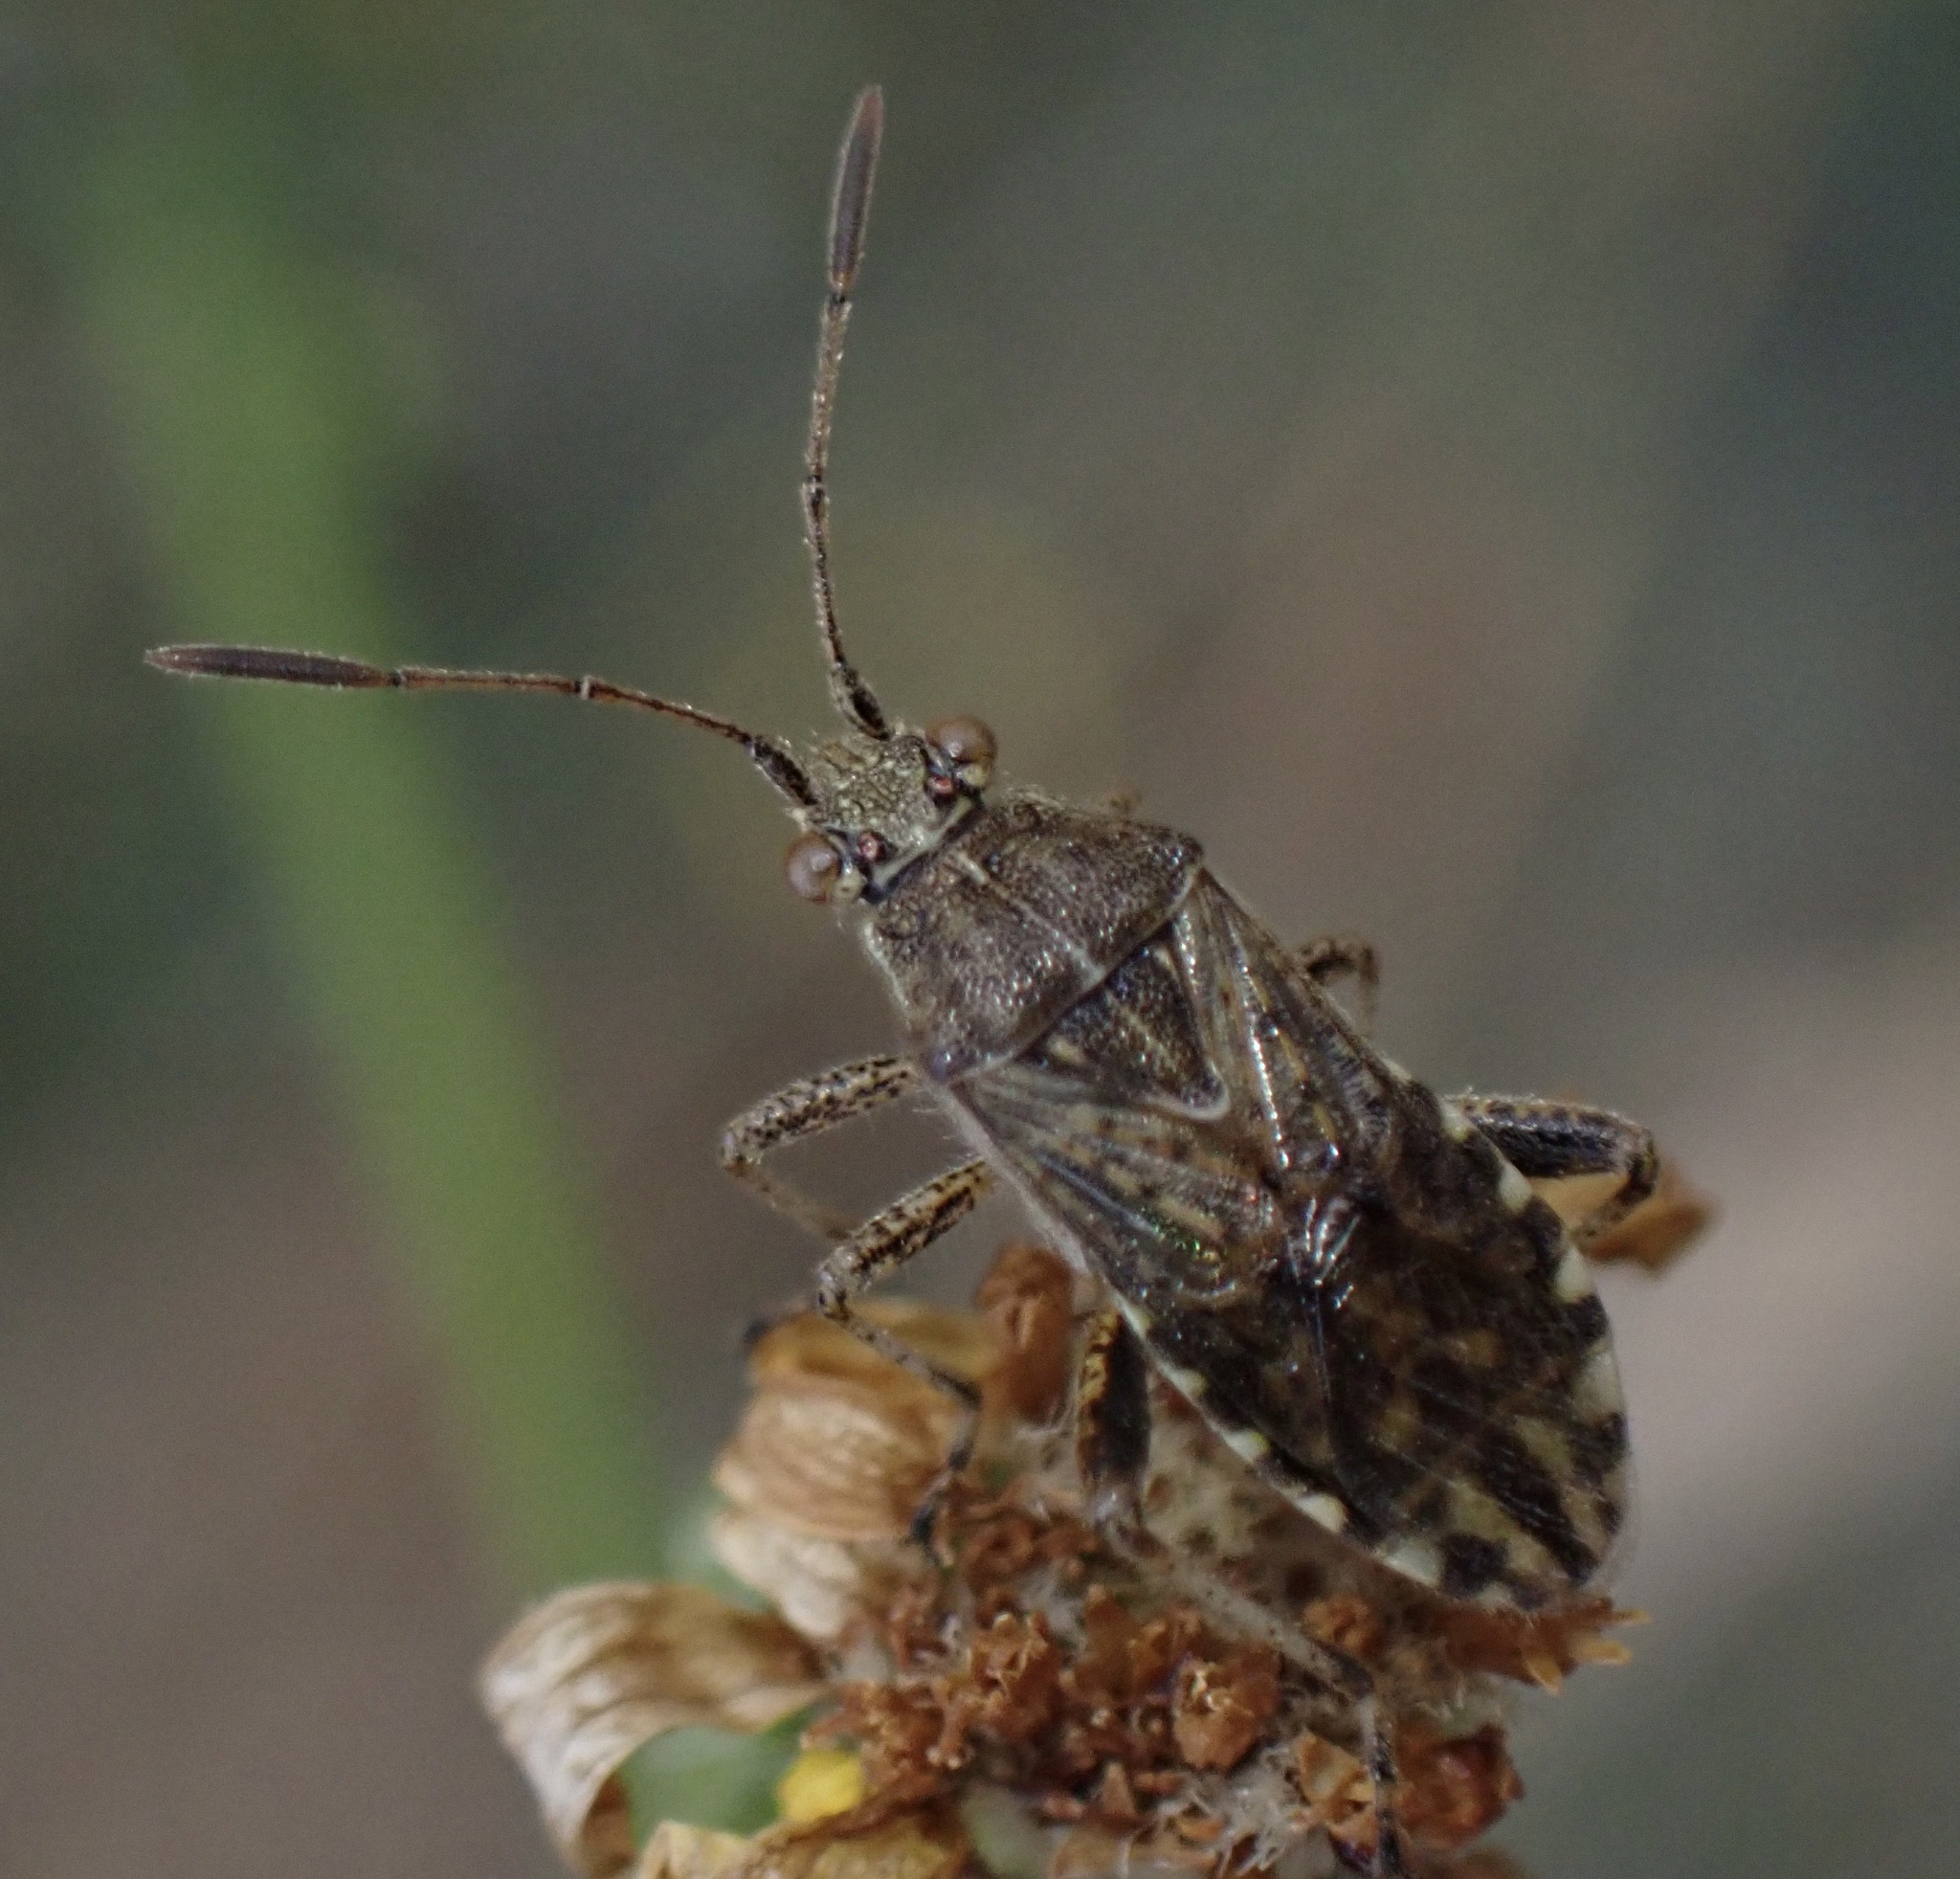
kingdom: Animalia
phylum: Arthropoda
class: Insecta
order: Hemiptera
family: Rhopalidae
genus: Stictopleurus
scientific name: Stictopleurus punctatonervosus
